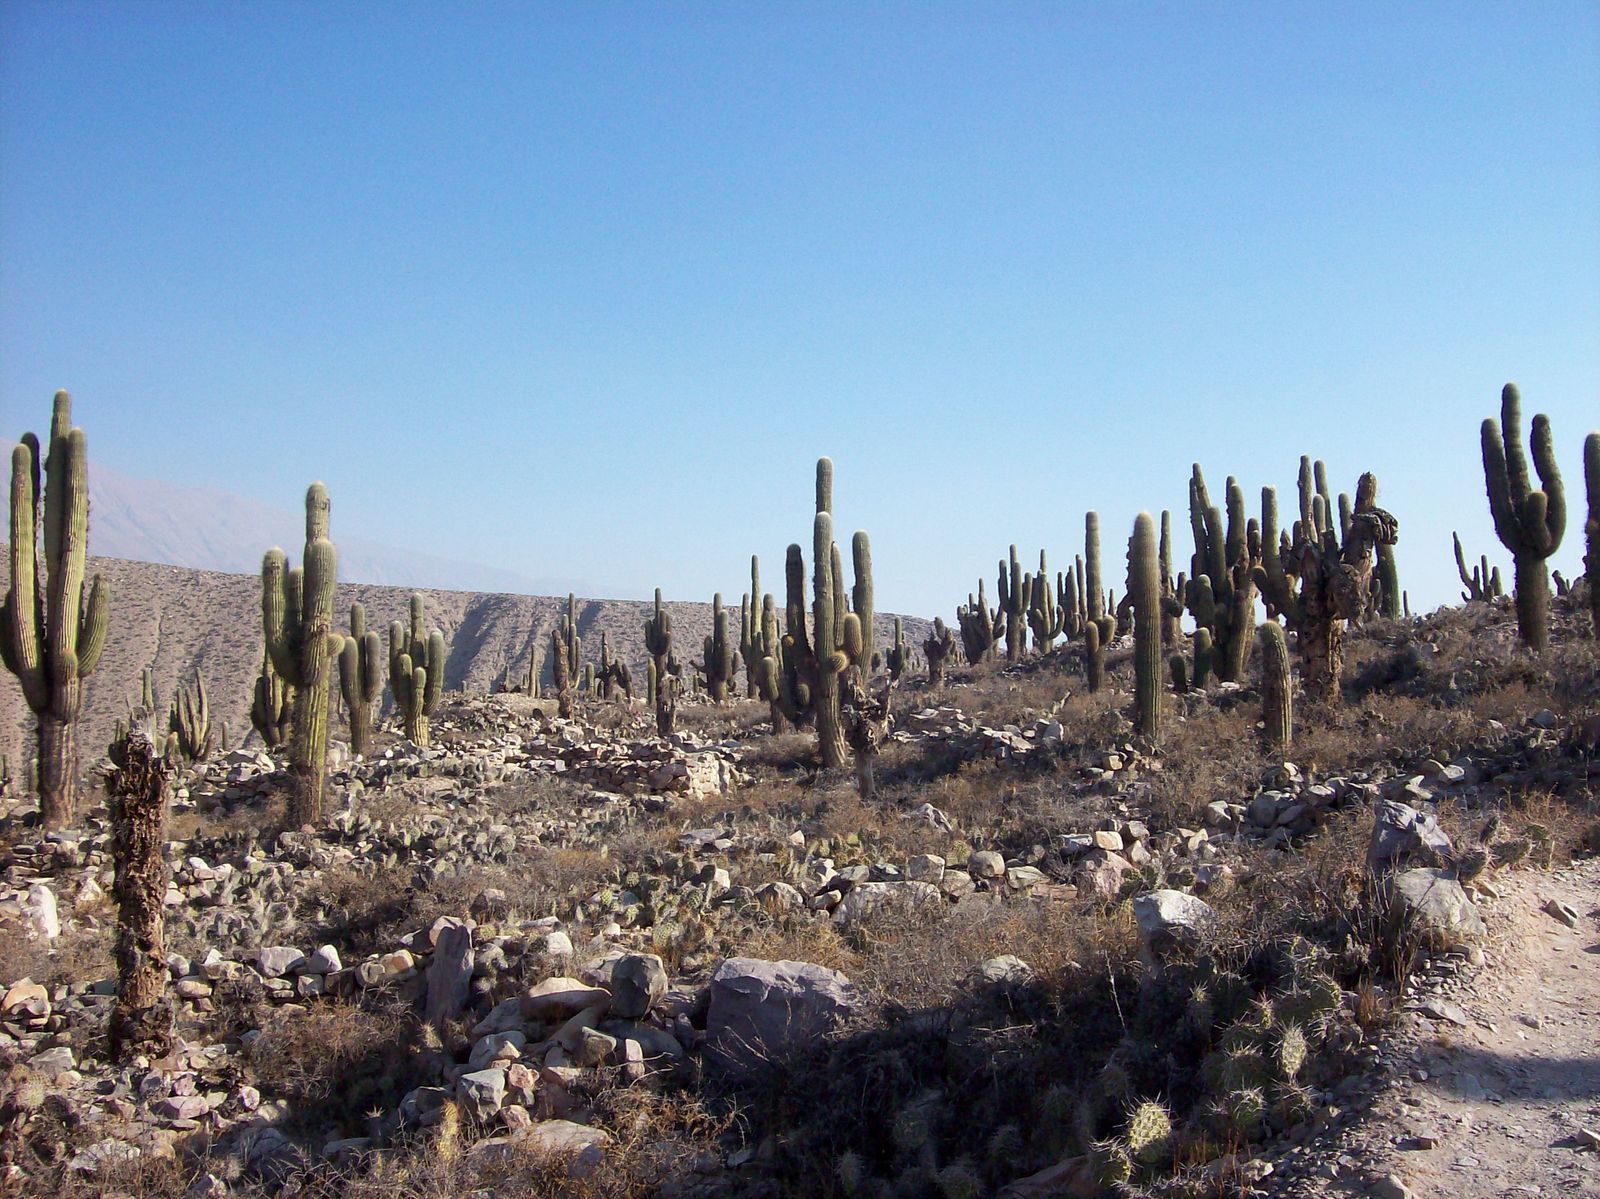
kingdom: Plantae
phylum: Tracheophyta
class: Magnoliopsida
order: Caryophyllales
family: Cactaceae
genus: Leucostele
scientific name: Leucostele atacamensis
